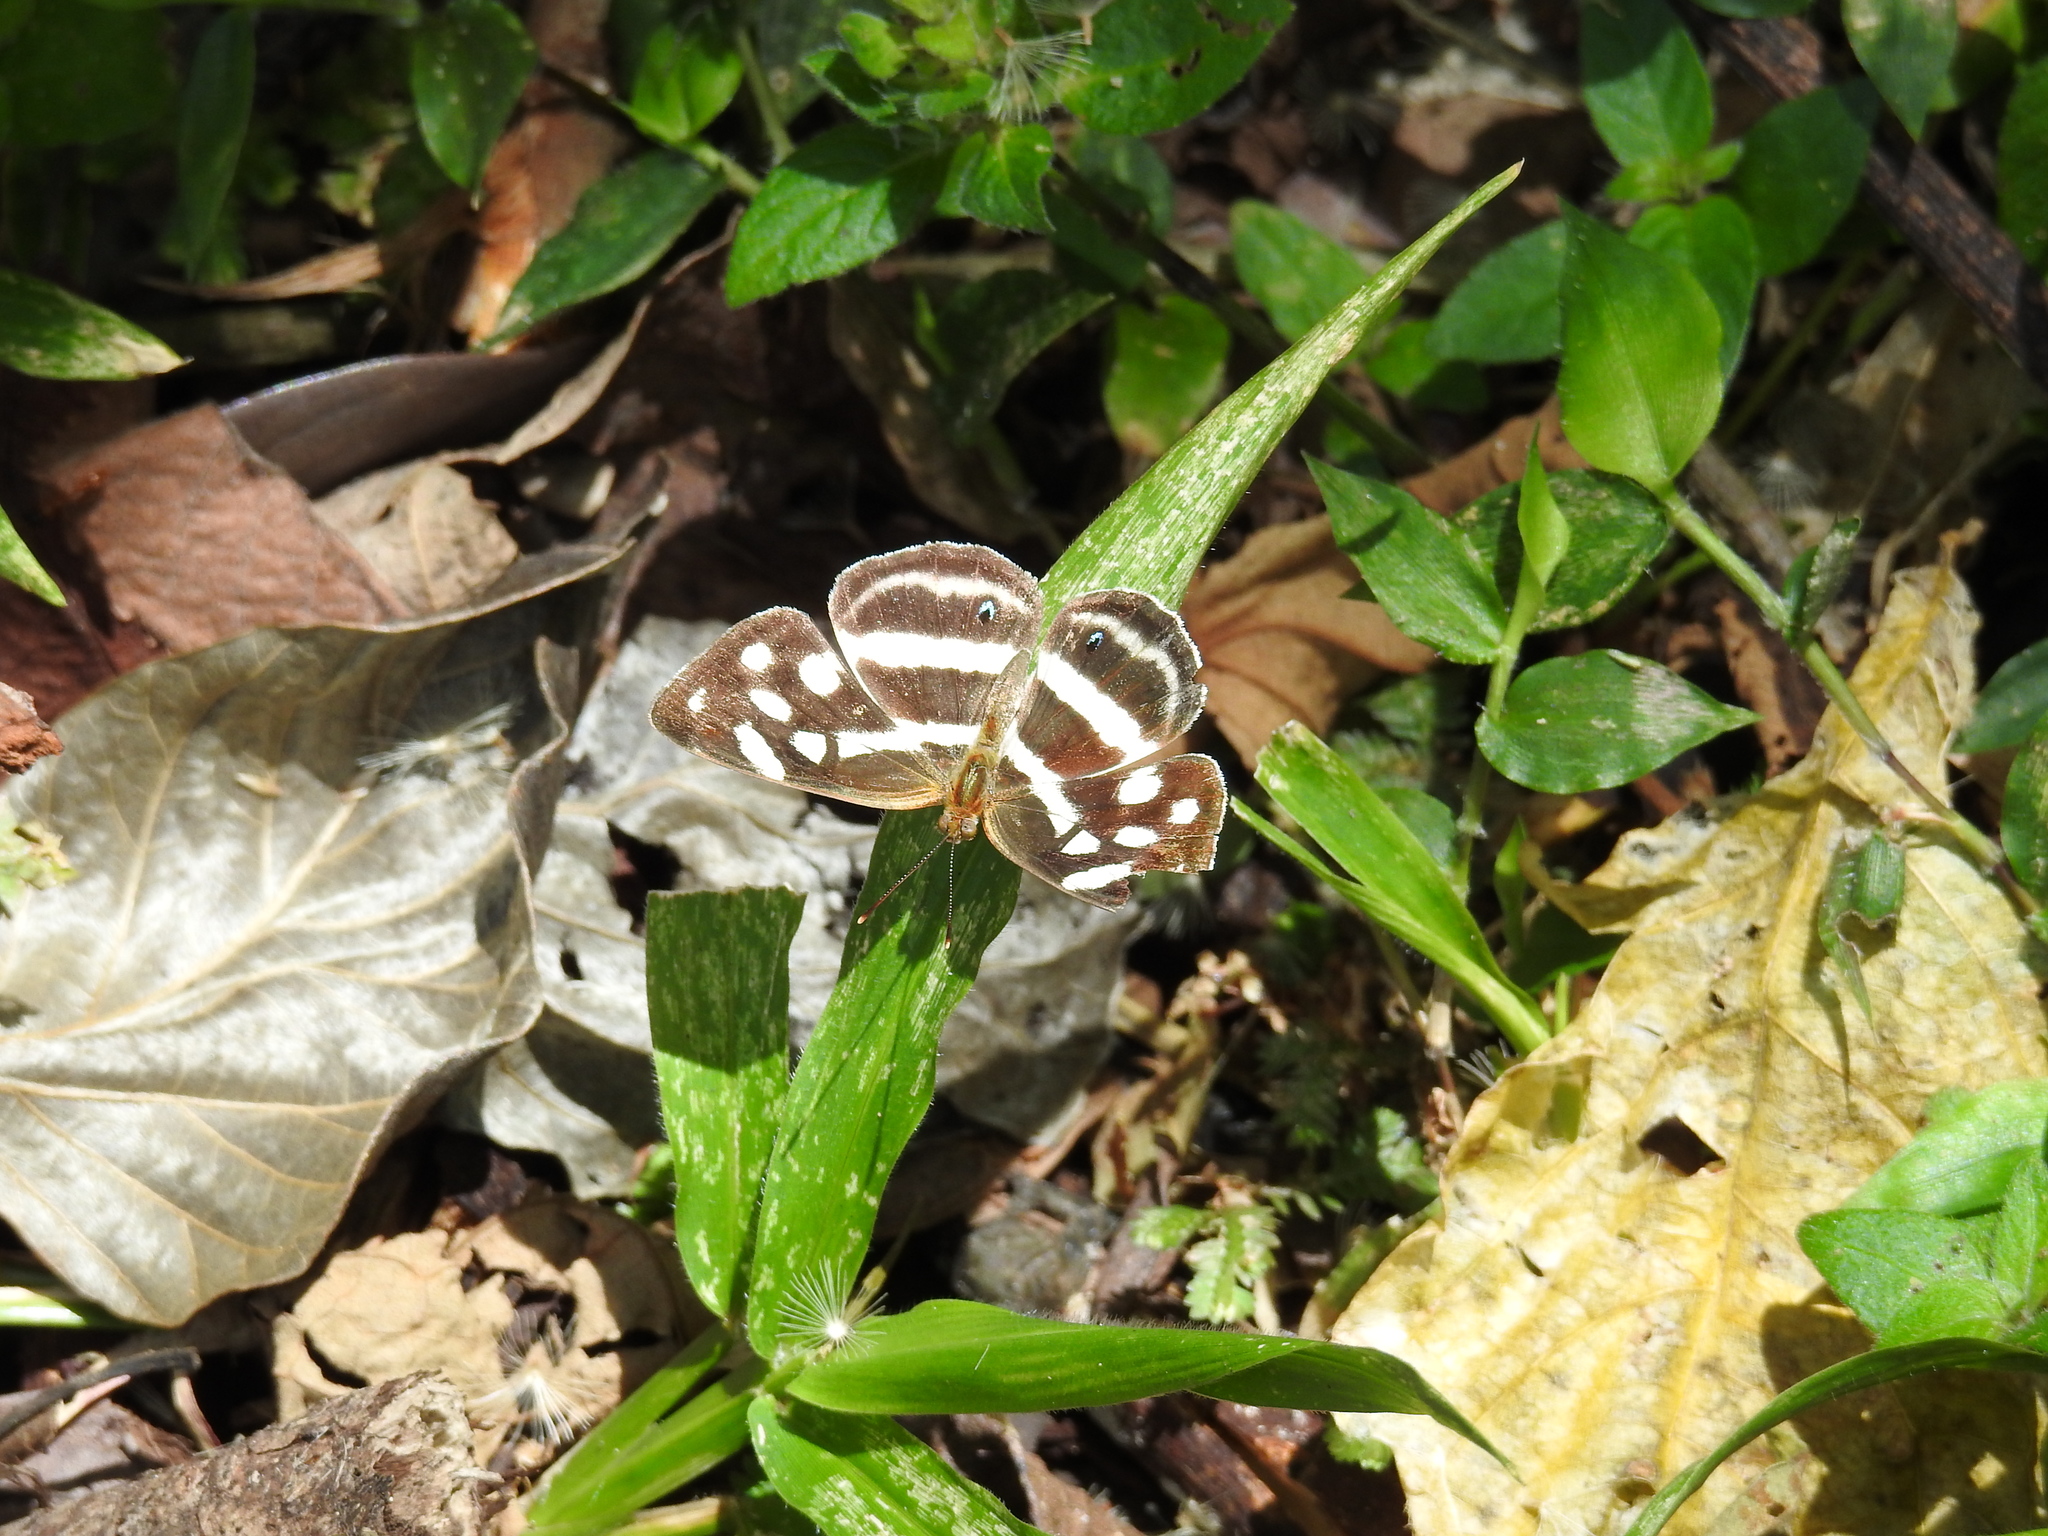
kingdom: Animalia
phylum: Arthropoda
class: Insecta
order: Lepidoptera
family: Nymphalidae
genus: Dynamine
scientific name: Dynamine mylitta
